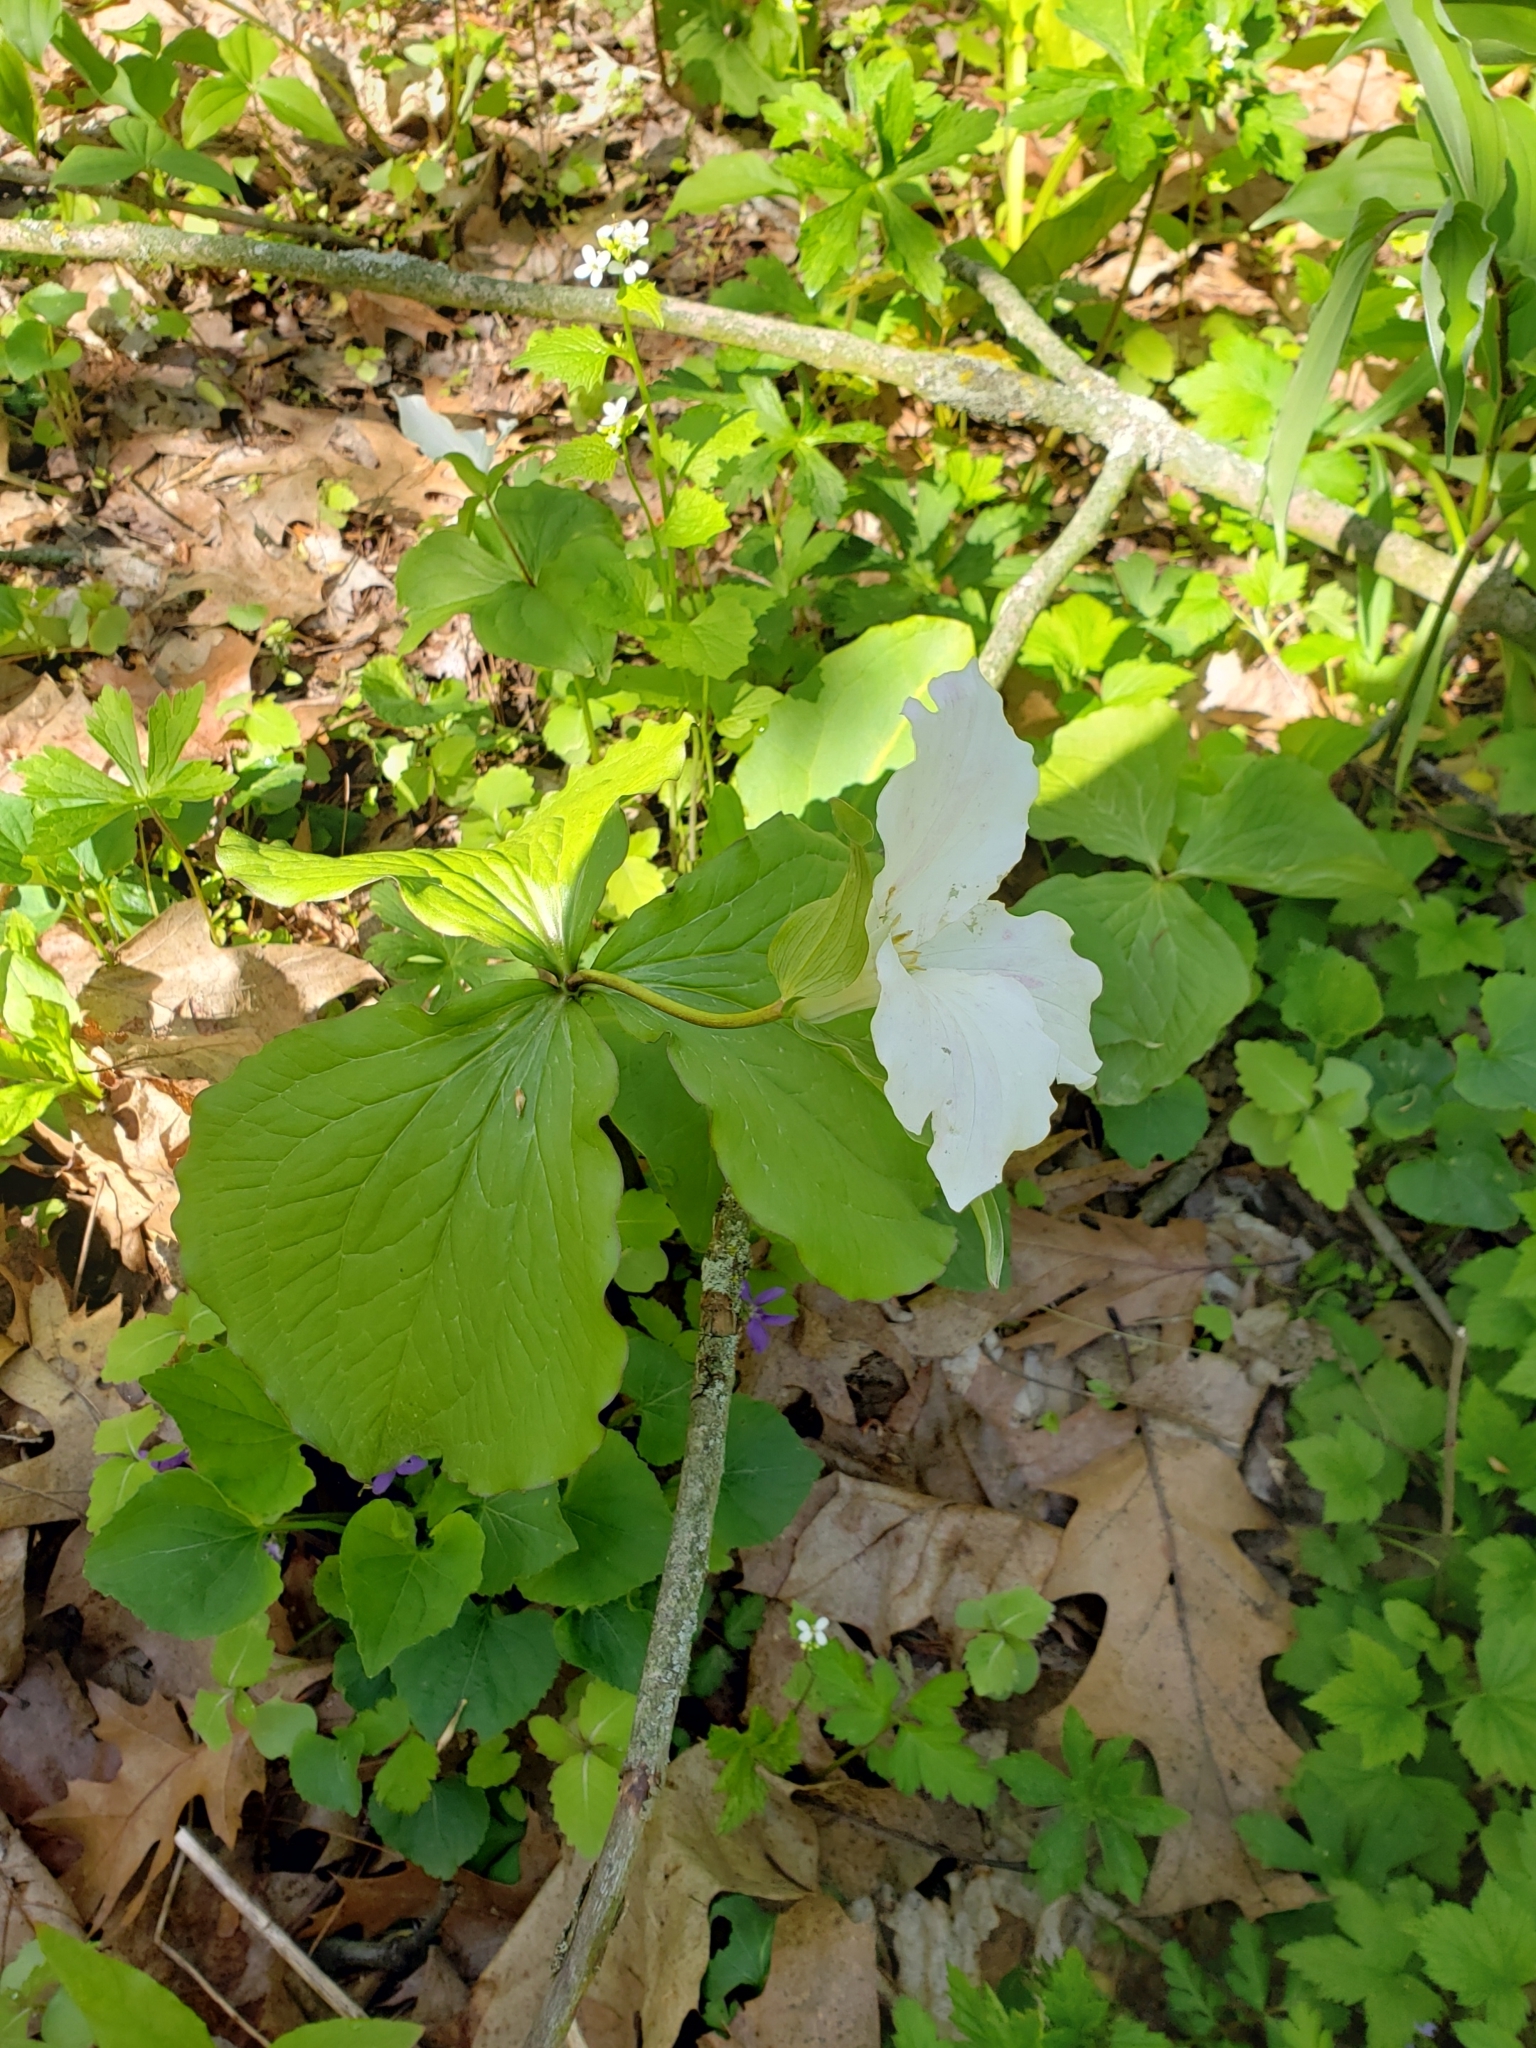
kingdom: Plantae
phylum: Tracheophyta
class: Liliopsida
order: Liliales
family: Melanthiaceae
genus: Trillium
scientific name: Trillium grandiflorum
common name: Great white trillium
